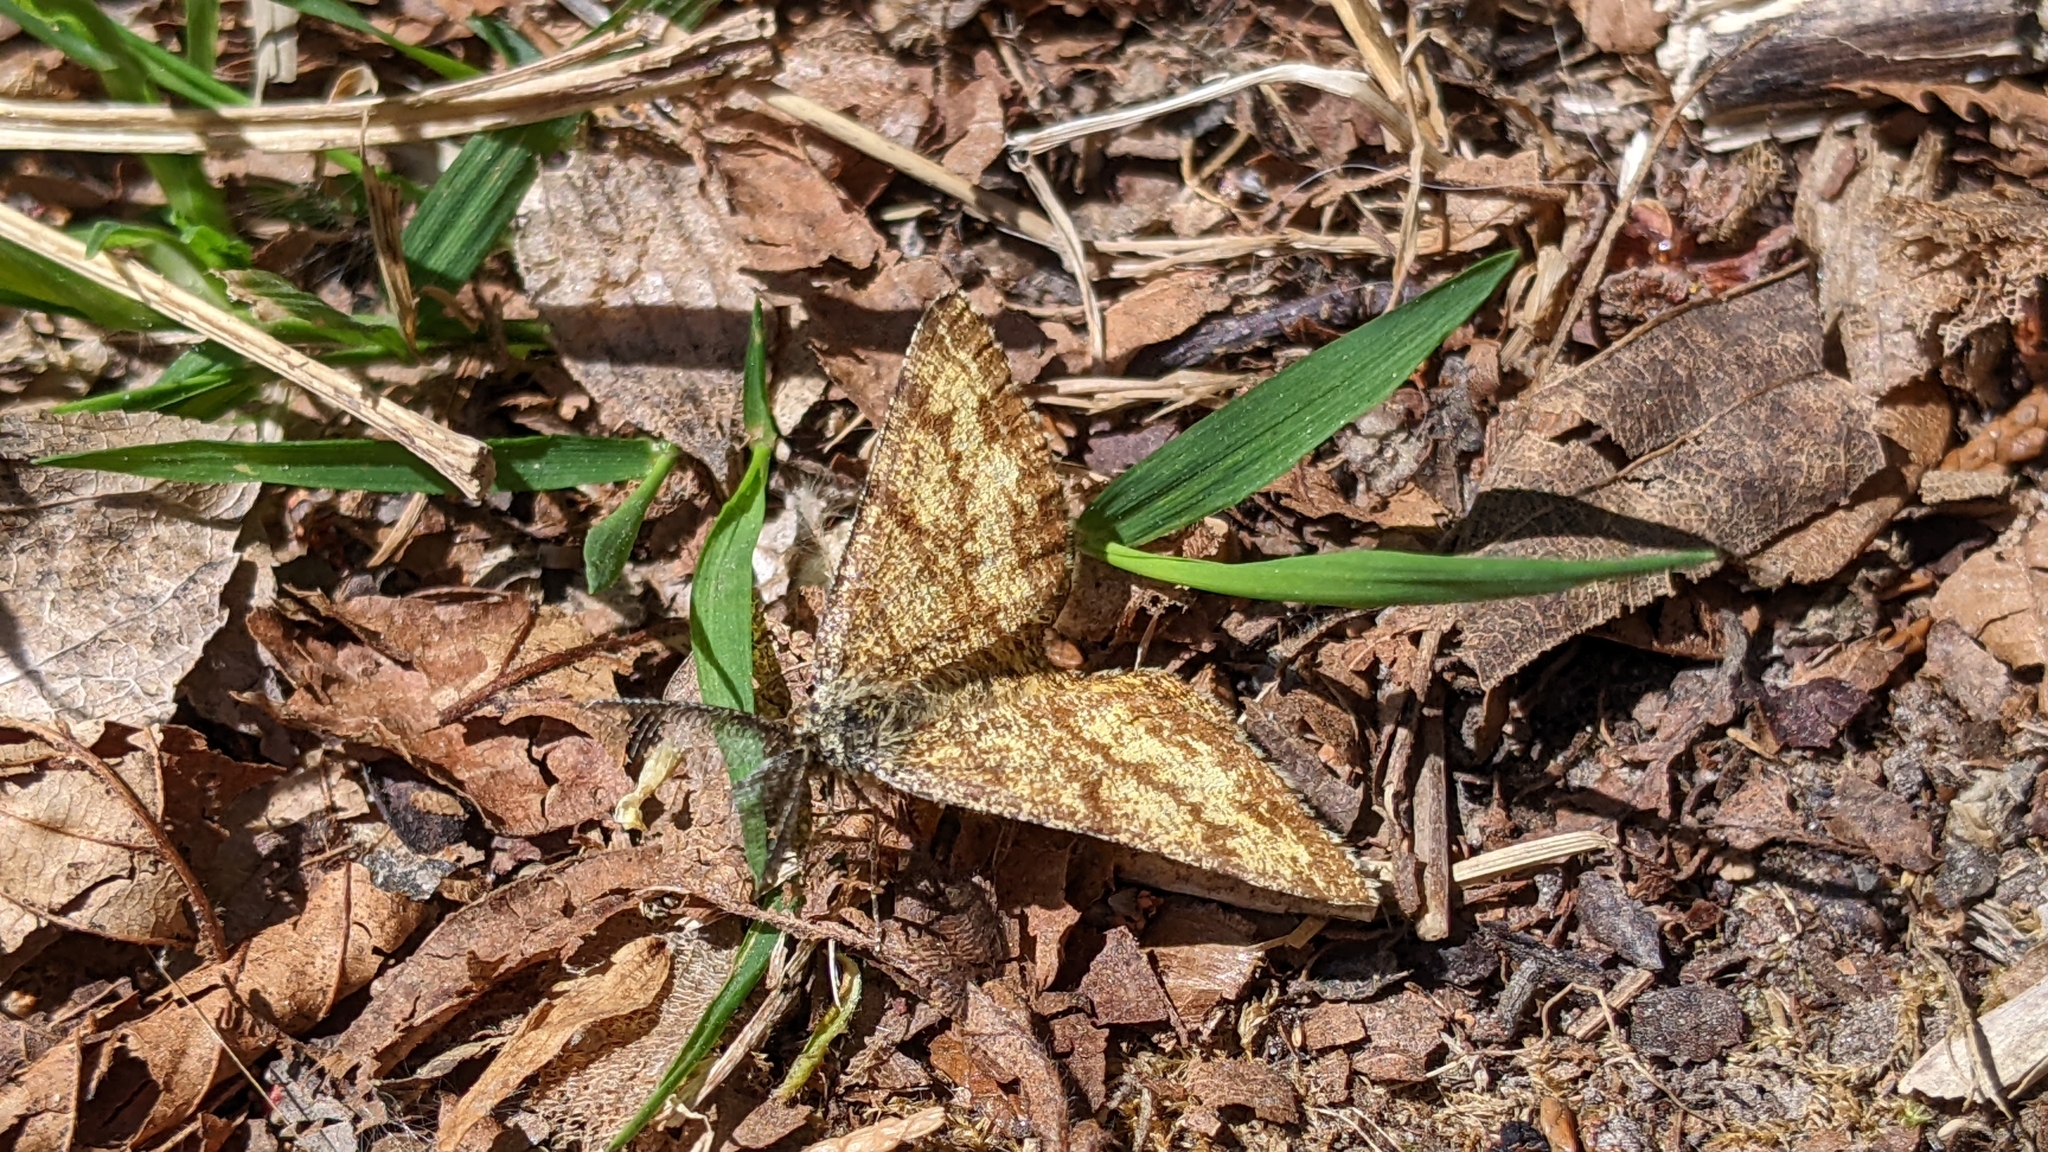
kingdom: Animalia
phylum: Arthropoda
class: Insecta
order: Lepidoptera
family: Geometridae
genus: Ematurga
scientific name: Ematurga atomaria
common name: Common heath
